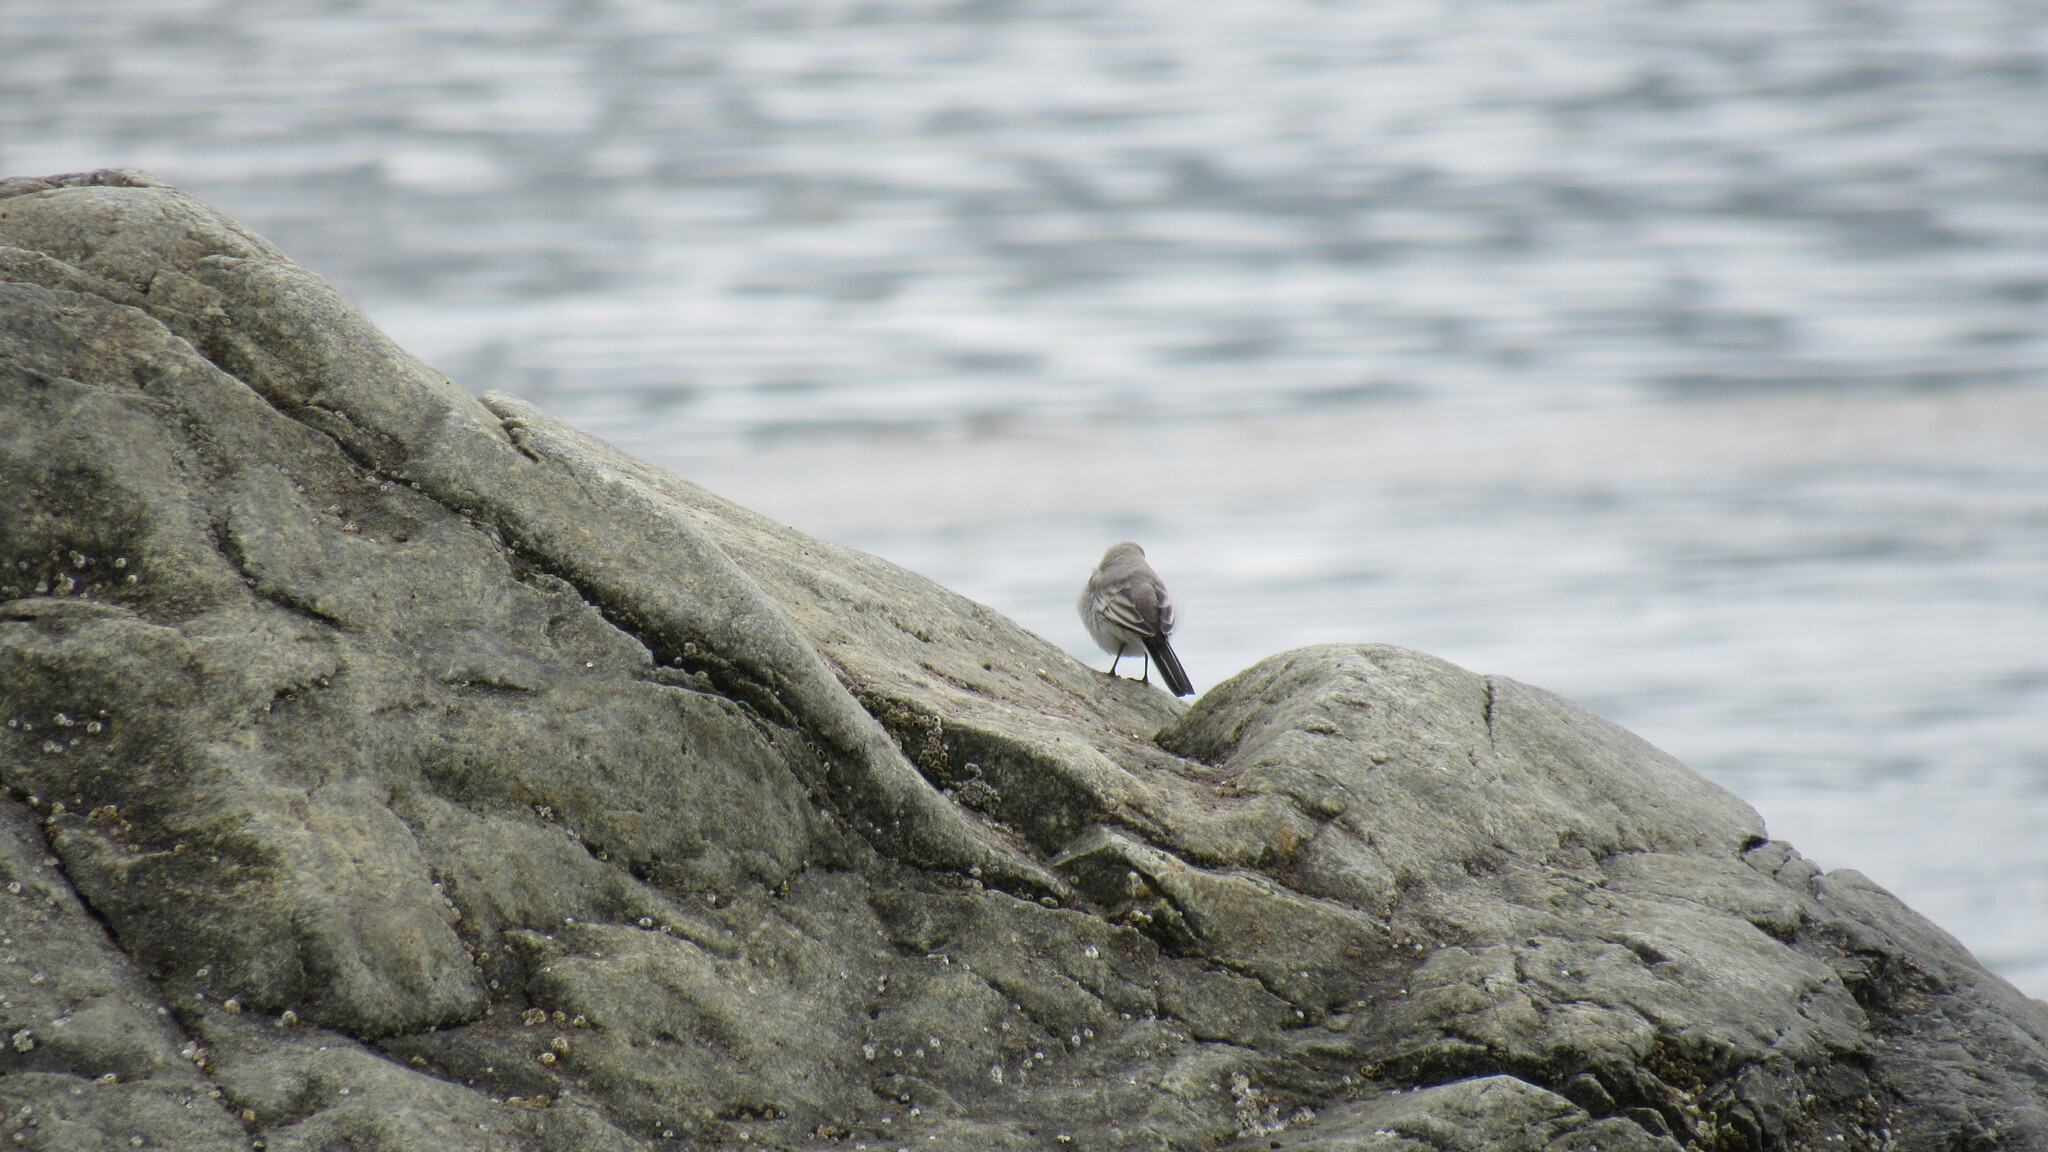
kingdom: Animalia
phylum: Chordata
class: Aves
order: Passeriformes
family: Motacillidae
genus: Motacilla
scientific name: Motacilla alba
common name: White wagtail
